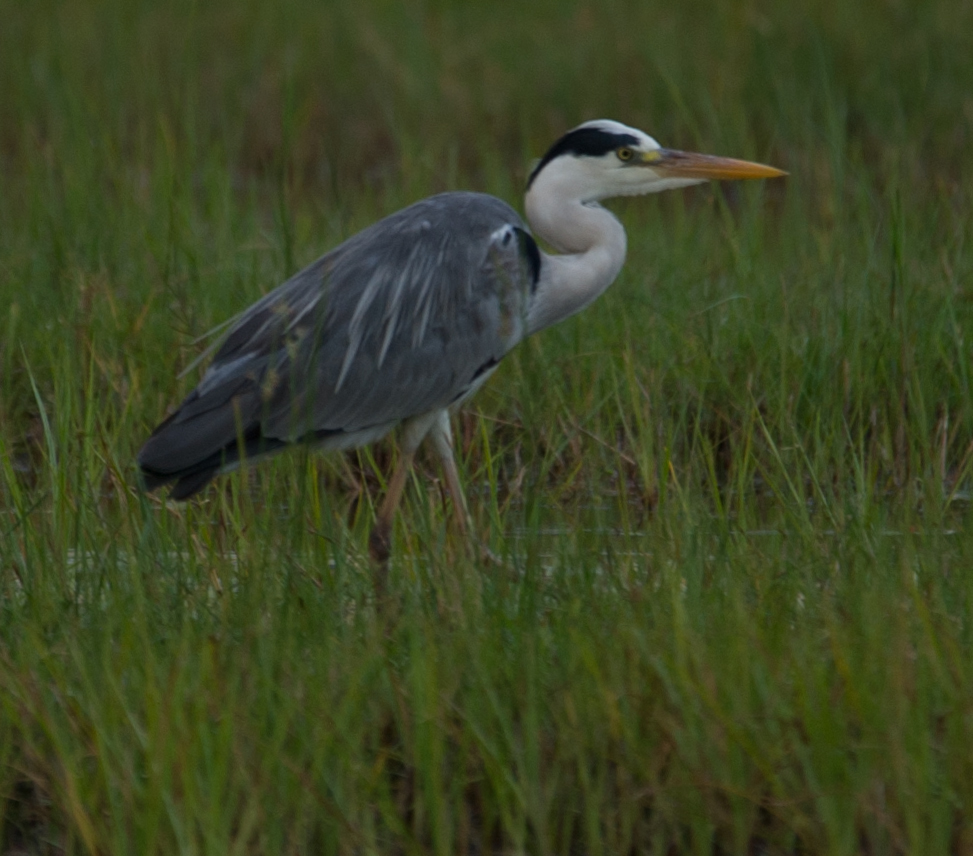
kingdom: Animalia
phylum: Chordata
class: Aves
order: Pelecaniformes
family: Ardeidae
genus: Ardea
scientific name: Ardea cinerea
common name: Grey heron
